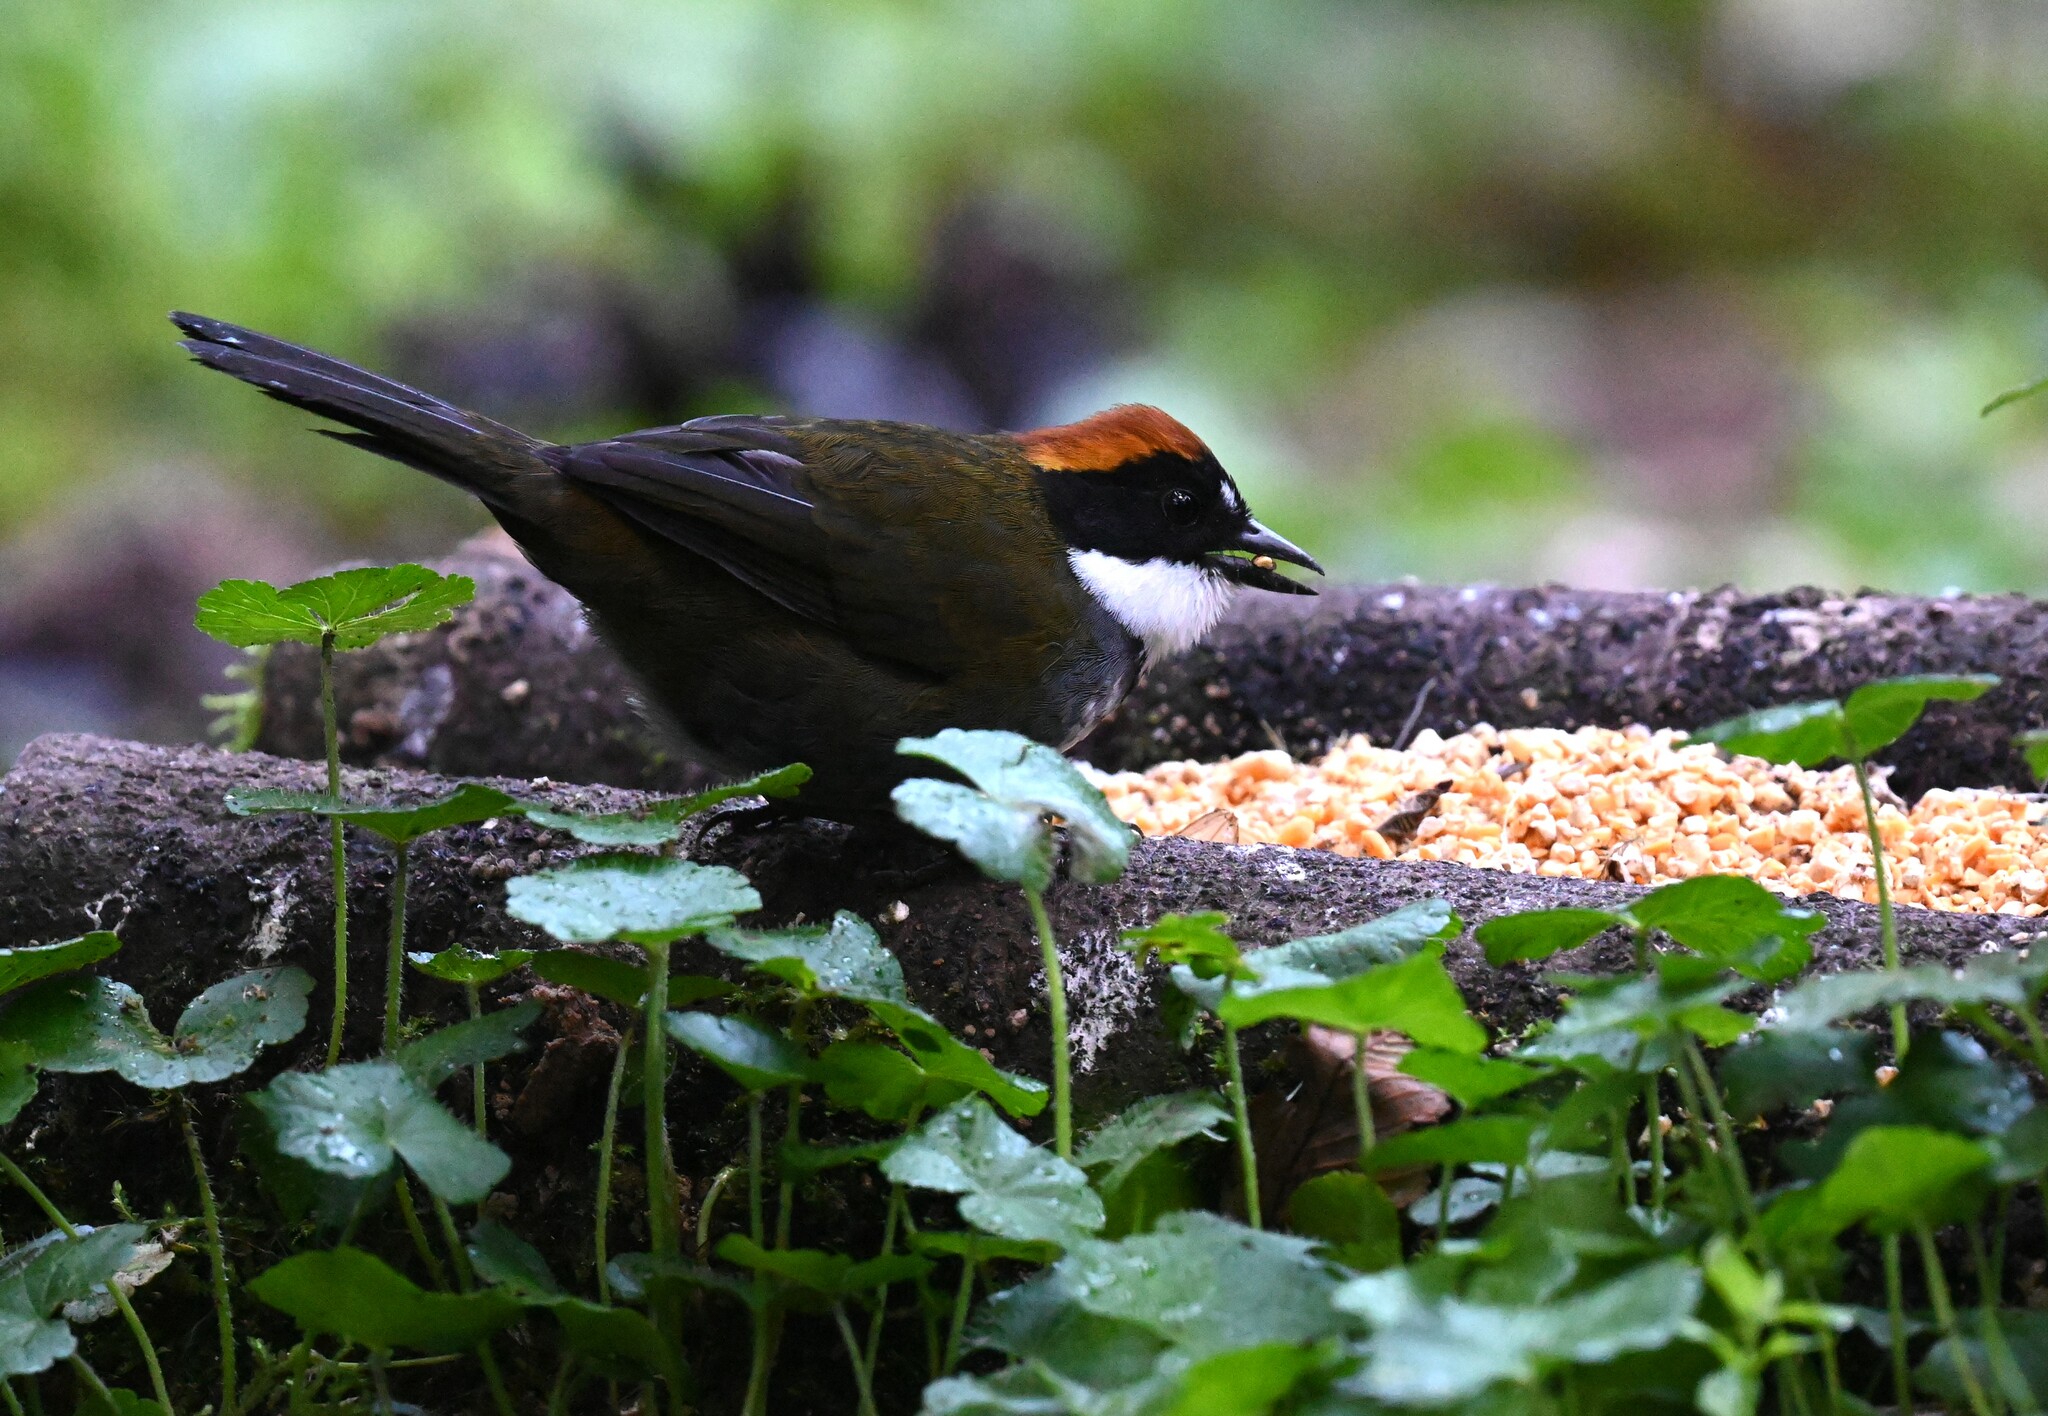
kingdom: Animalia
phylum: Chordata
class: Aves
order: Passeriformes
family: Passerellidae
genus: Arremon
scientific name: Arremon brunneinucha
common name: Chestnut-capped brushfinch
